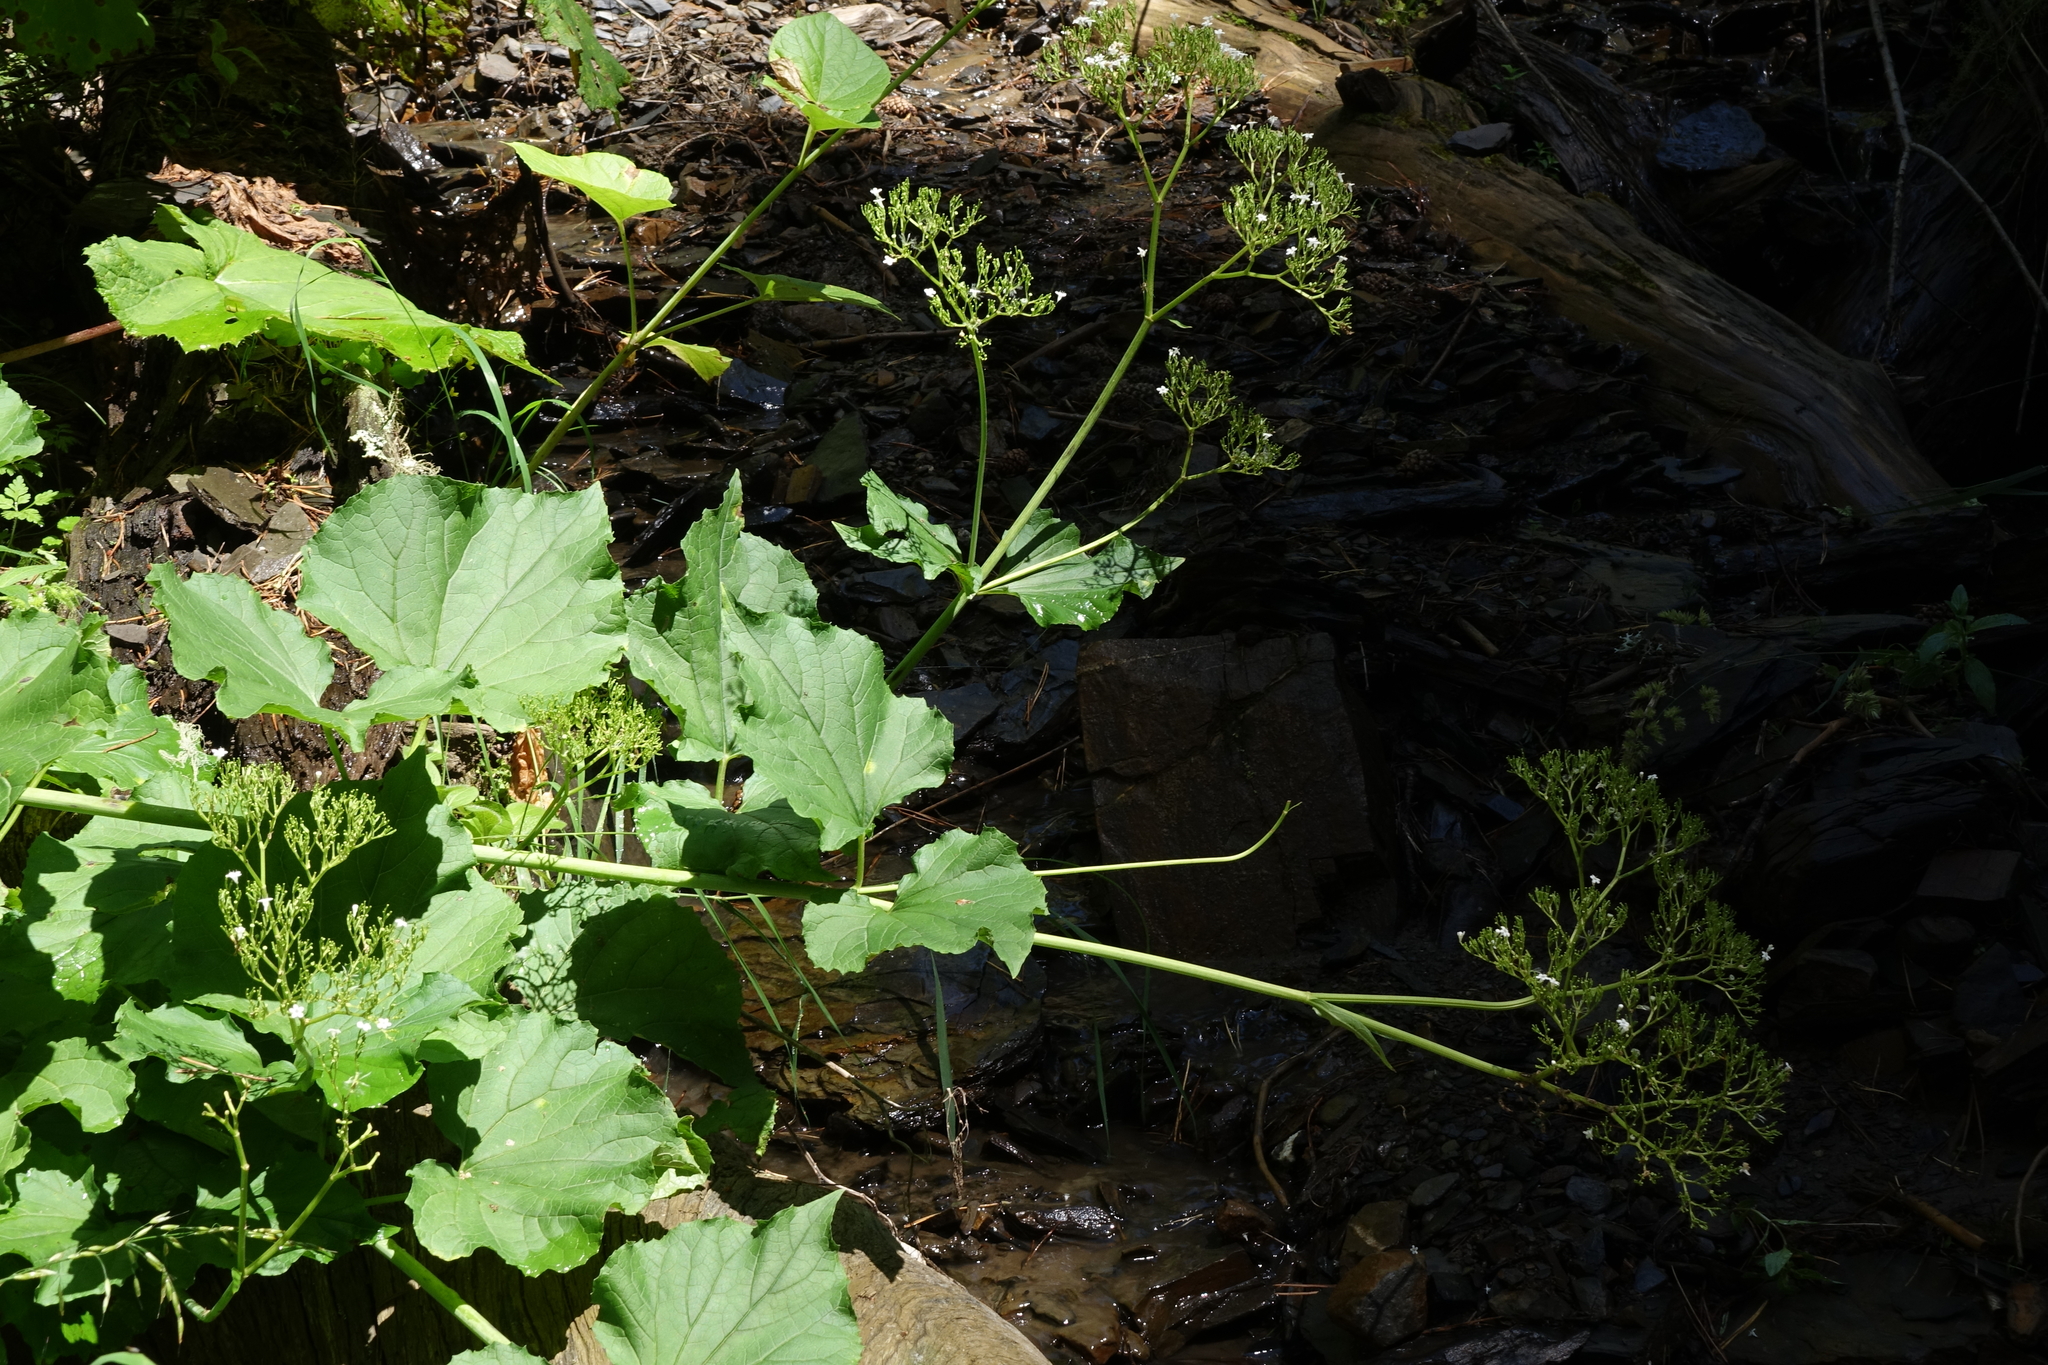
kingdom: Plantae
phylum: Tracheophyta
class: Magnoliopsida
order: Dipsacales
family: Caprifoliaceae
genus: Valeriana
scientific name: Valeriana alliariifolia
